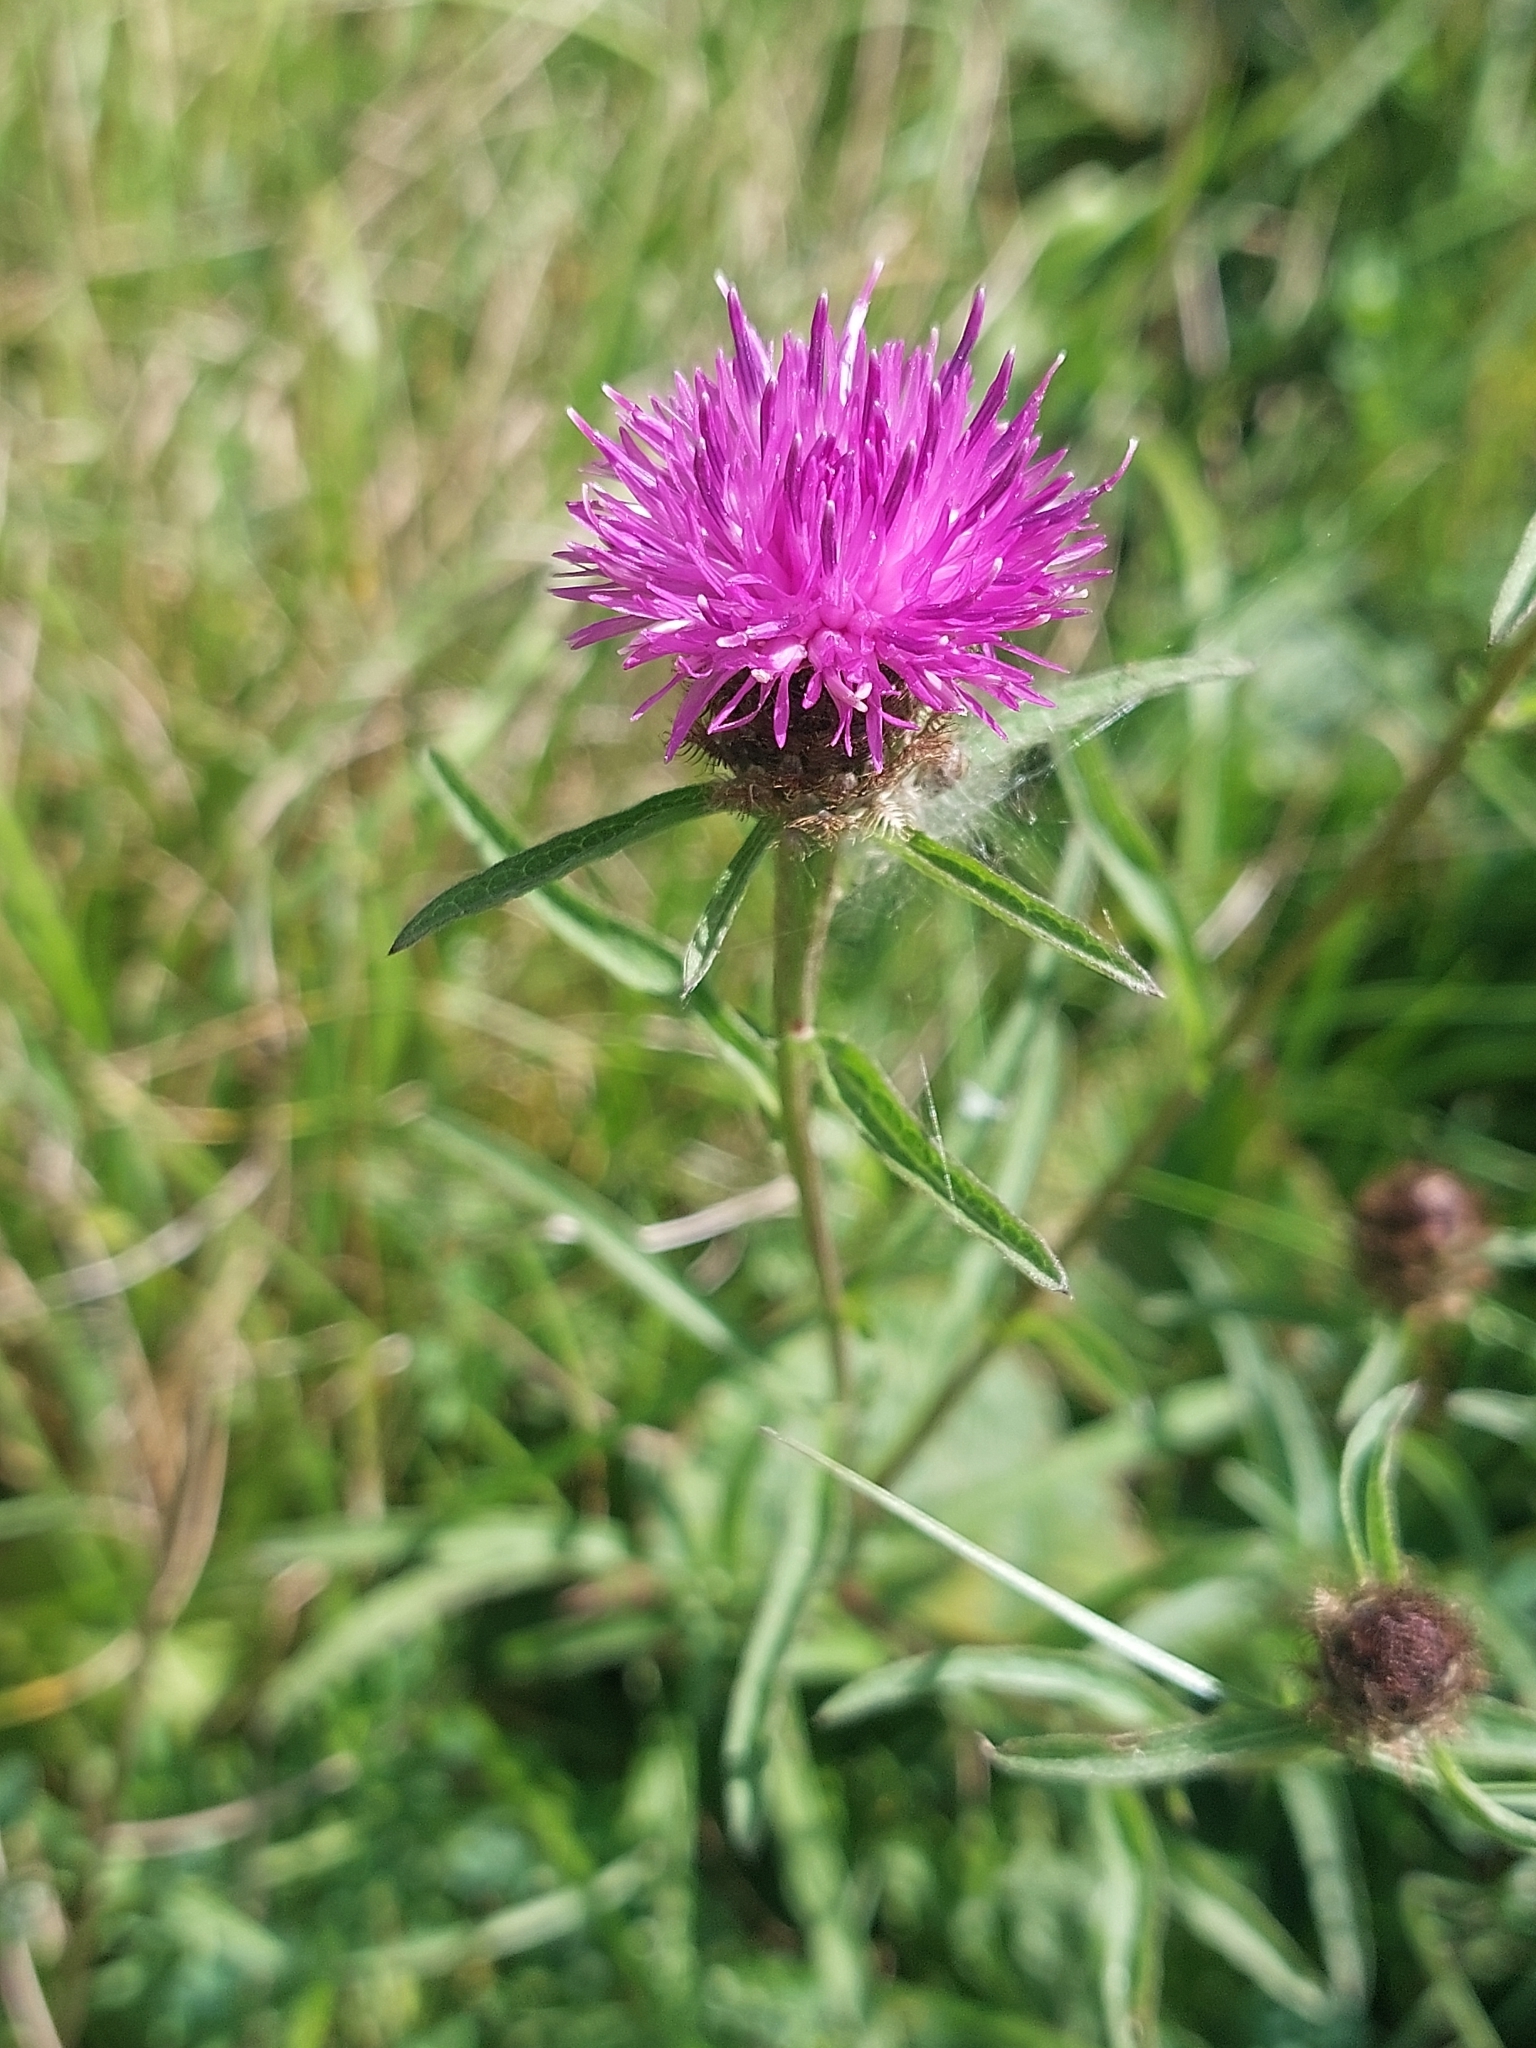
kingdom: Plantae
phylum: Tracheophyta
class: Magnoliopsida
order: Asterales
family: Asteraceae
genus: Centaurea
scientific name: Centaurea nigra
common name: Lesser knapweed
